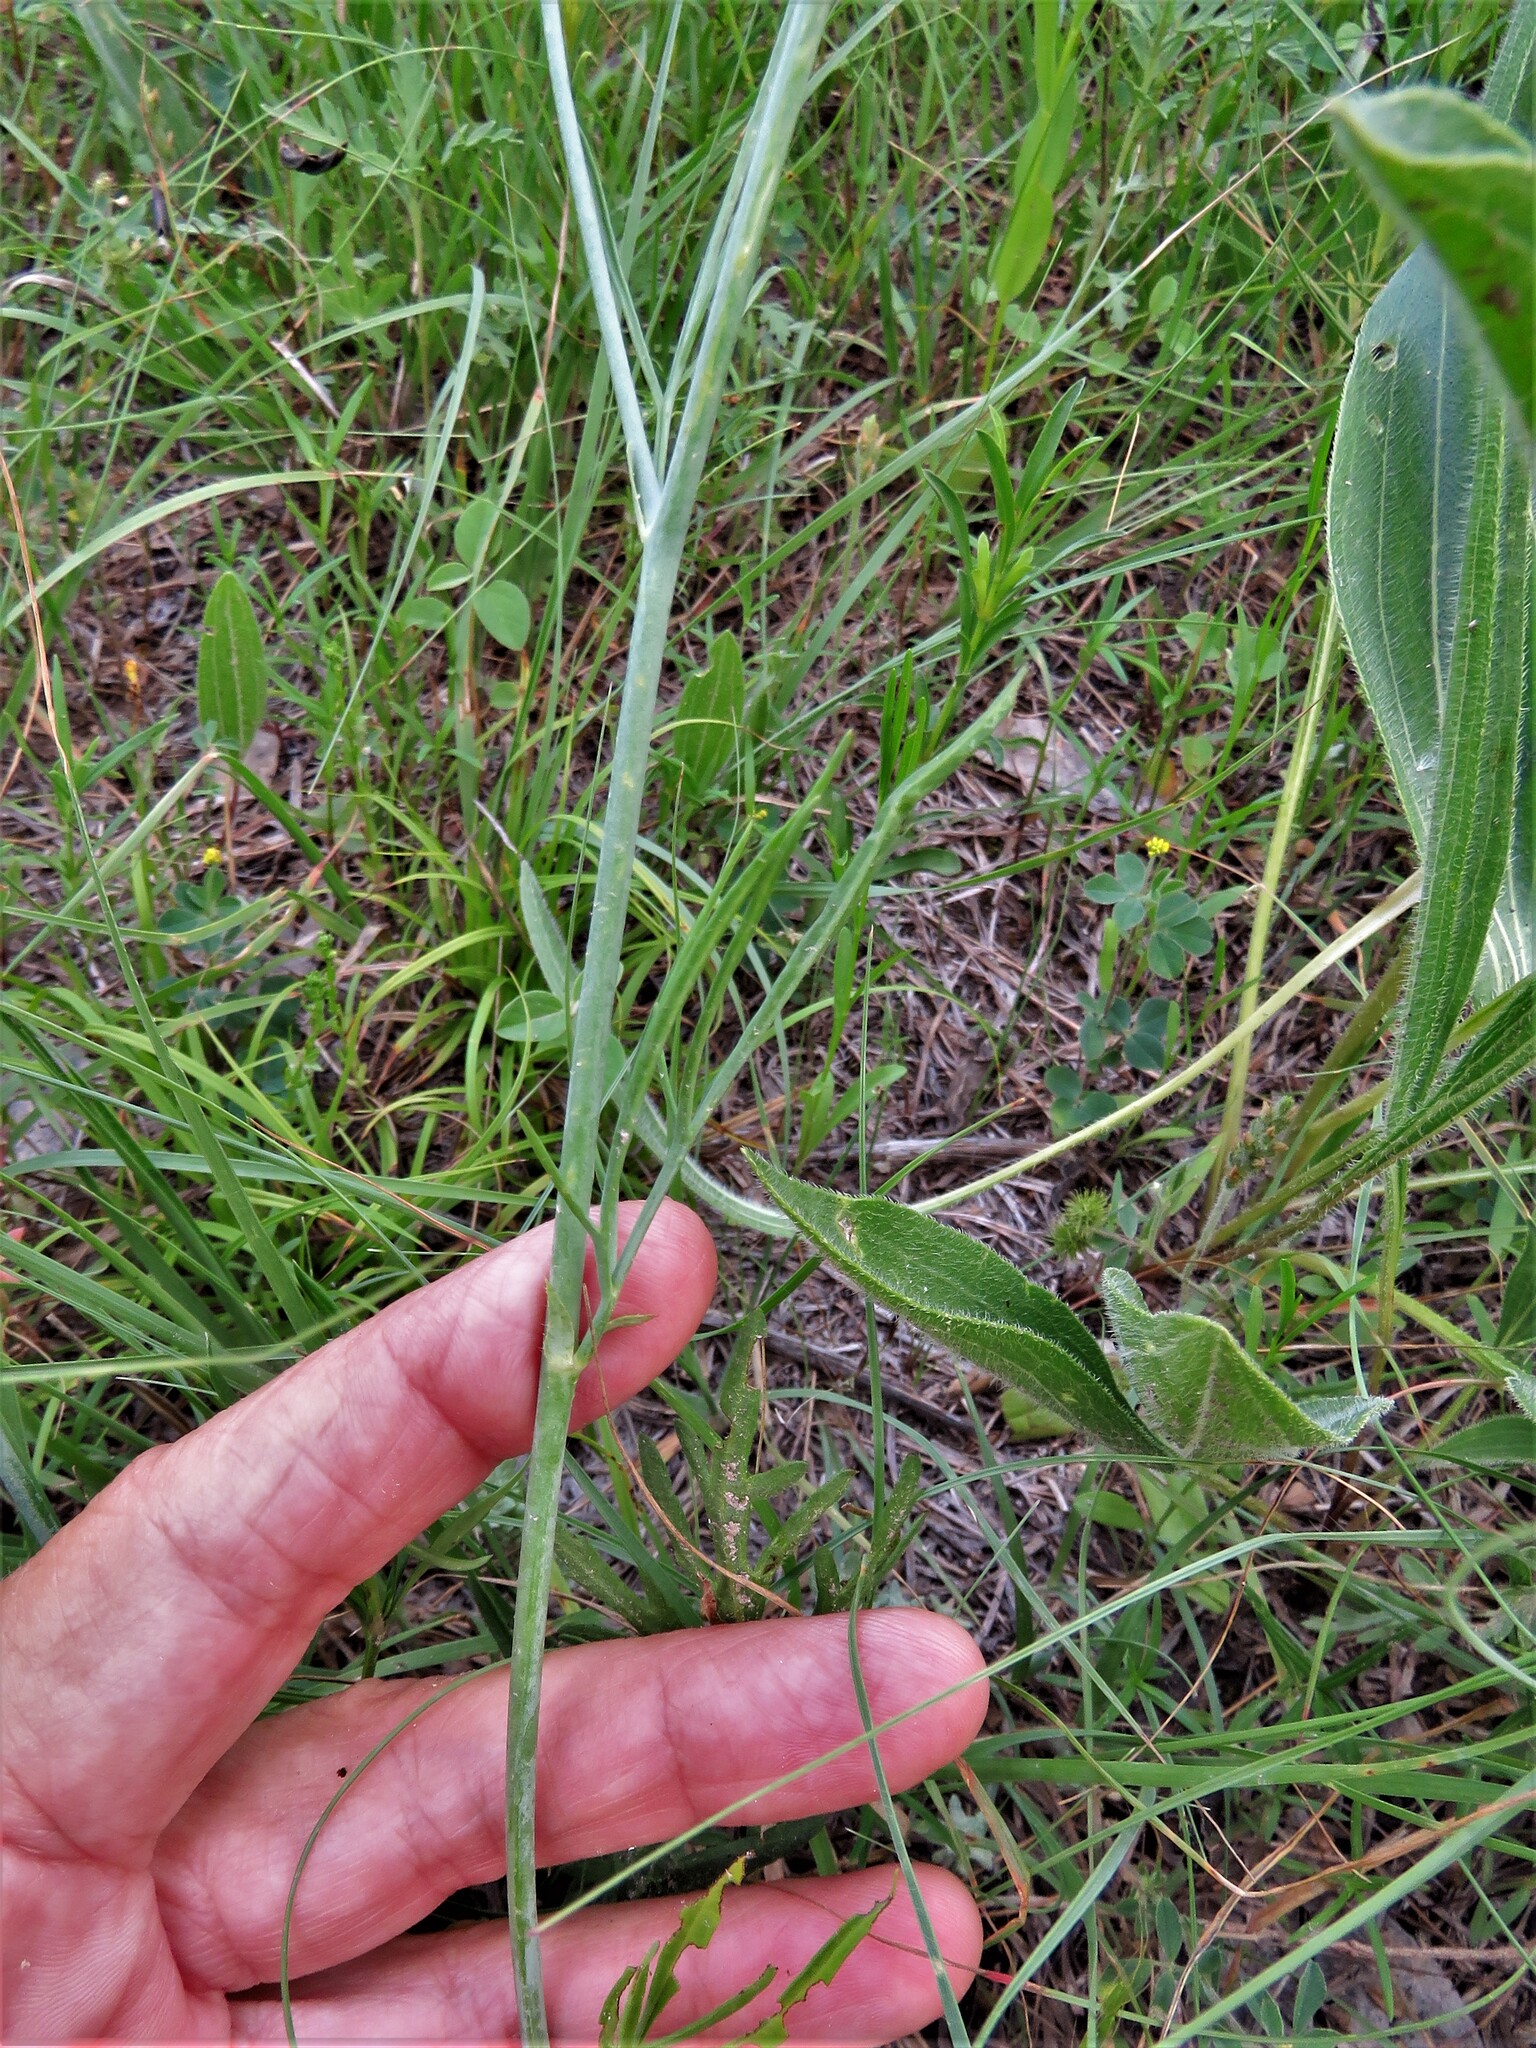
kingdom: Plantae
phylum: Tracheophyta
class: Magnoliopsida
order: Malvales
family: Malvaceae
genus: Callirhoe
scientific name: Callirhoe pedata
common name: Finger poppy-mallow
